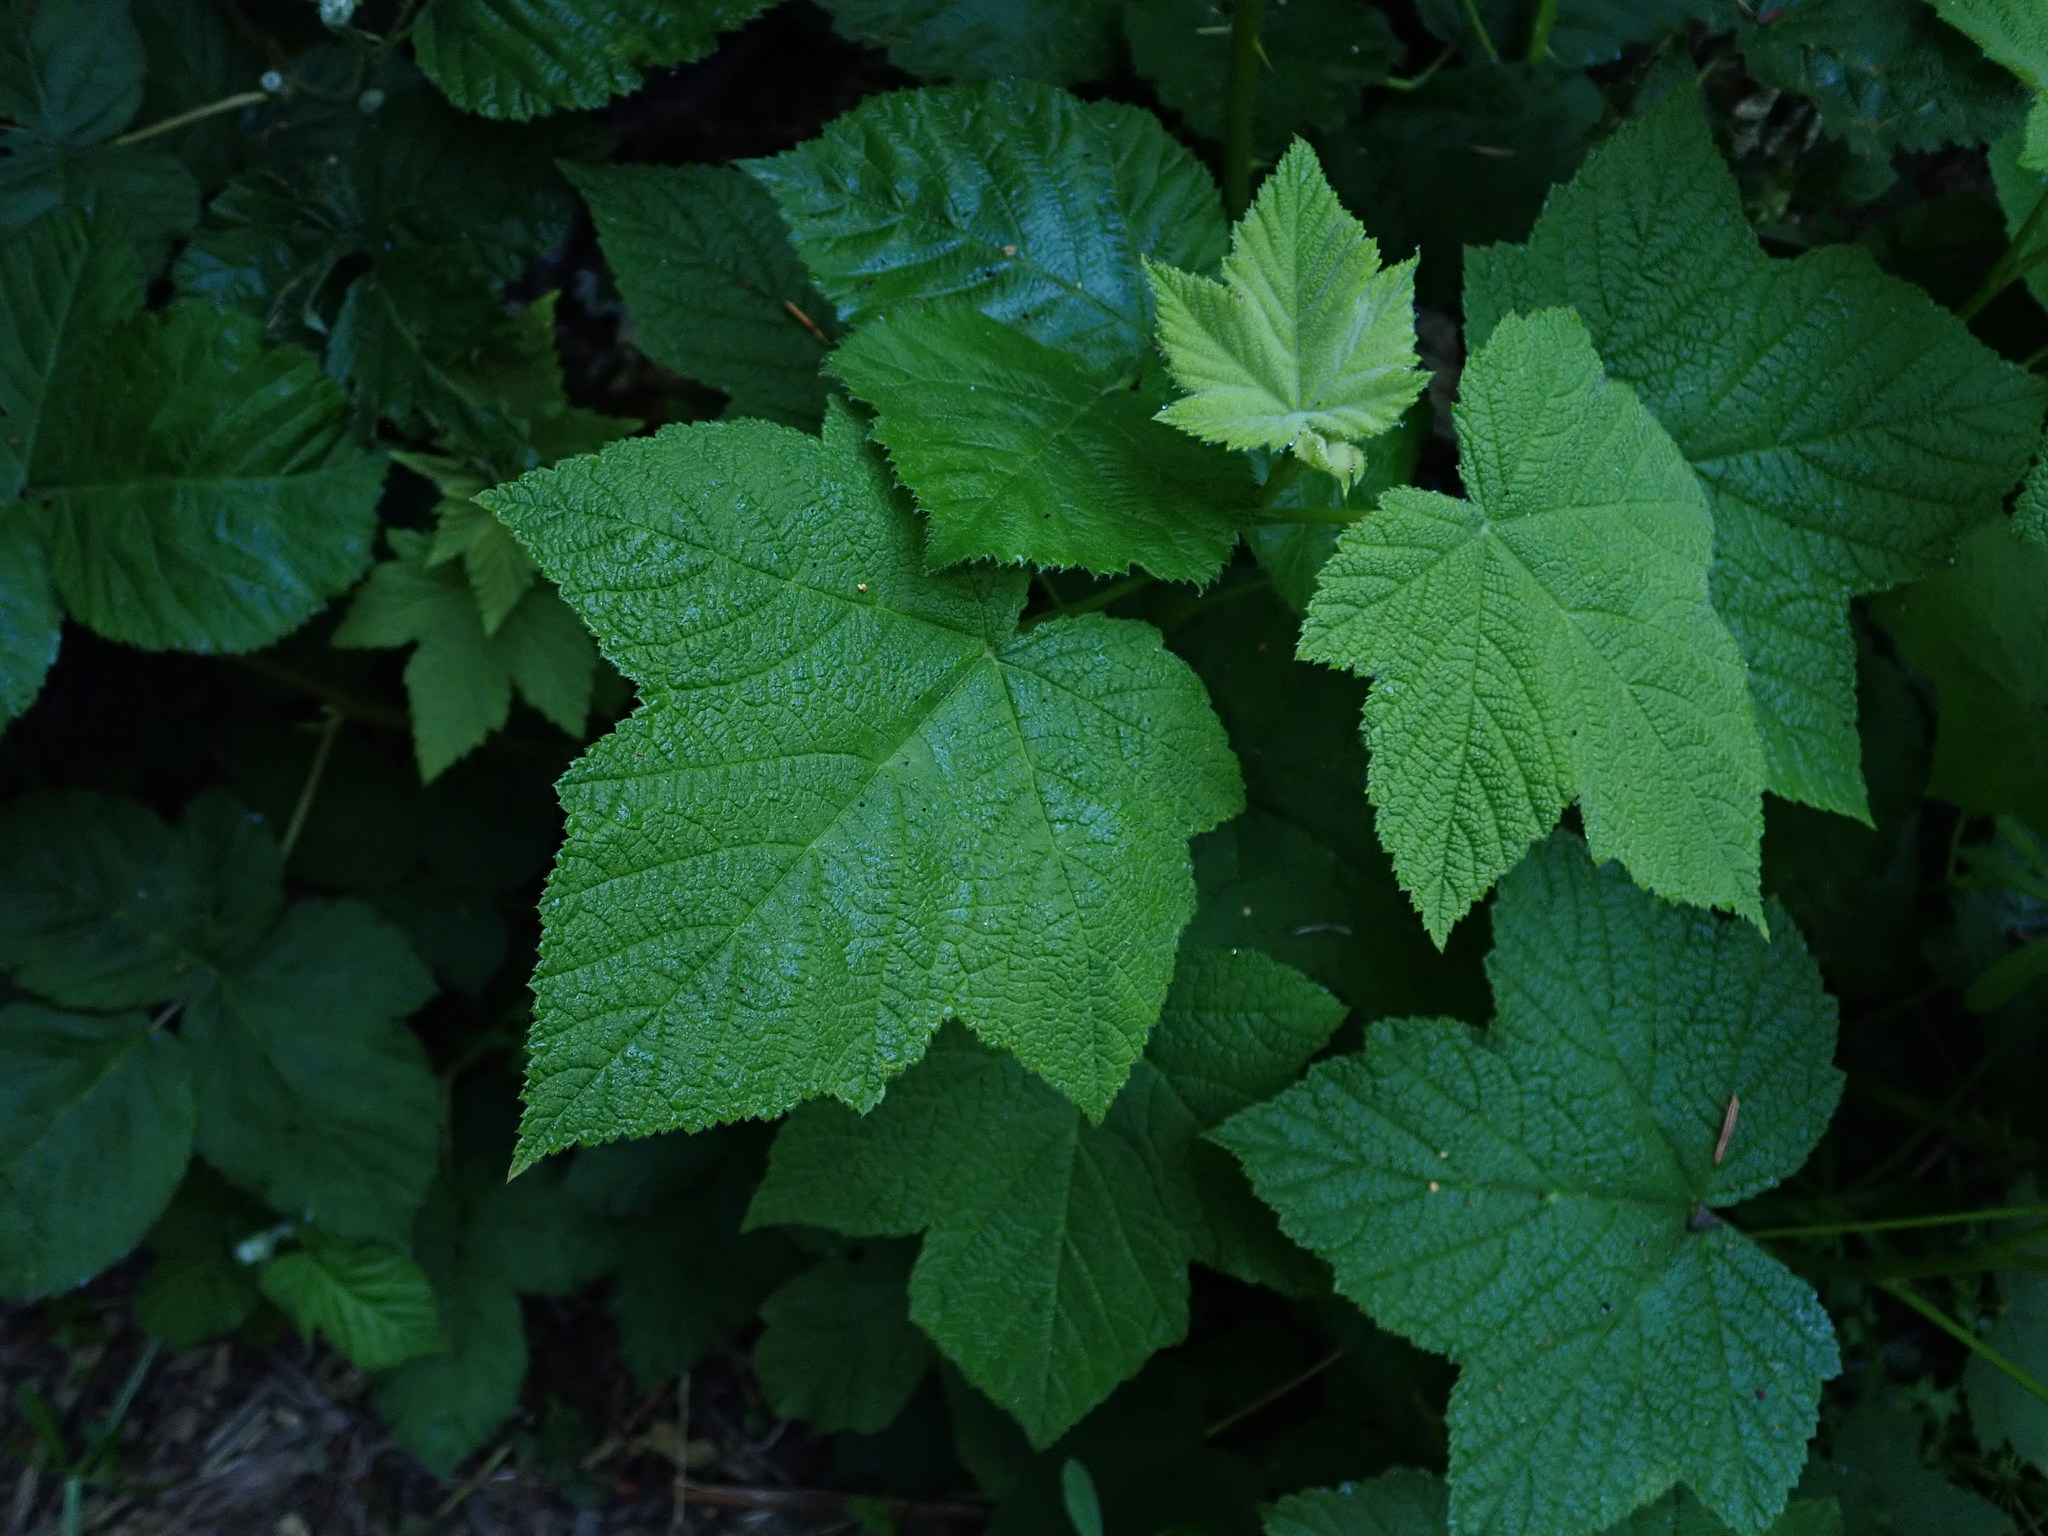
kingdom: Plantae
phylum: Tracheophyta
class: Magnoliopsida
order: Rosales
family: Rosaceae
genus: Rubus
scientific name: Rubus parviflorus
